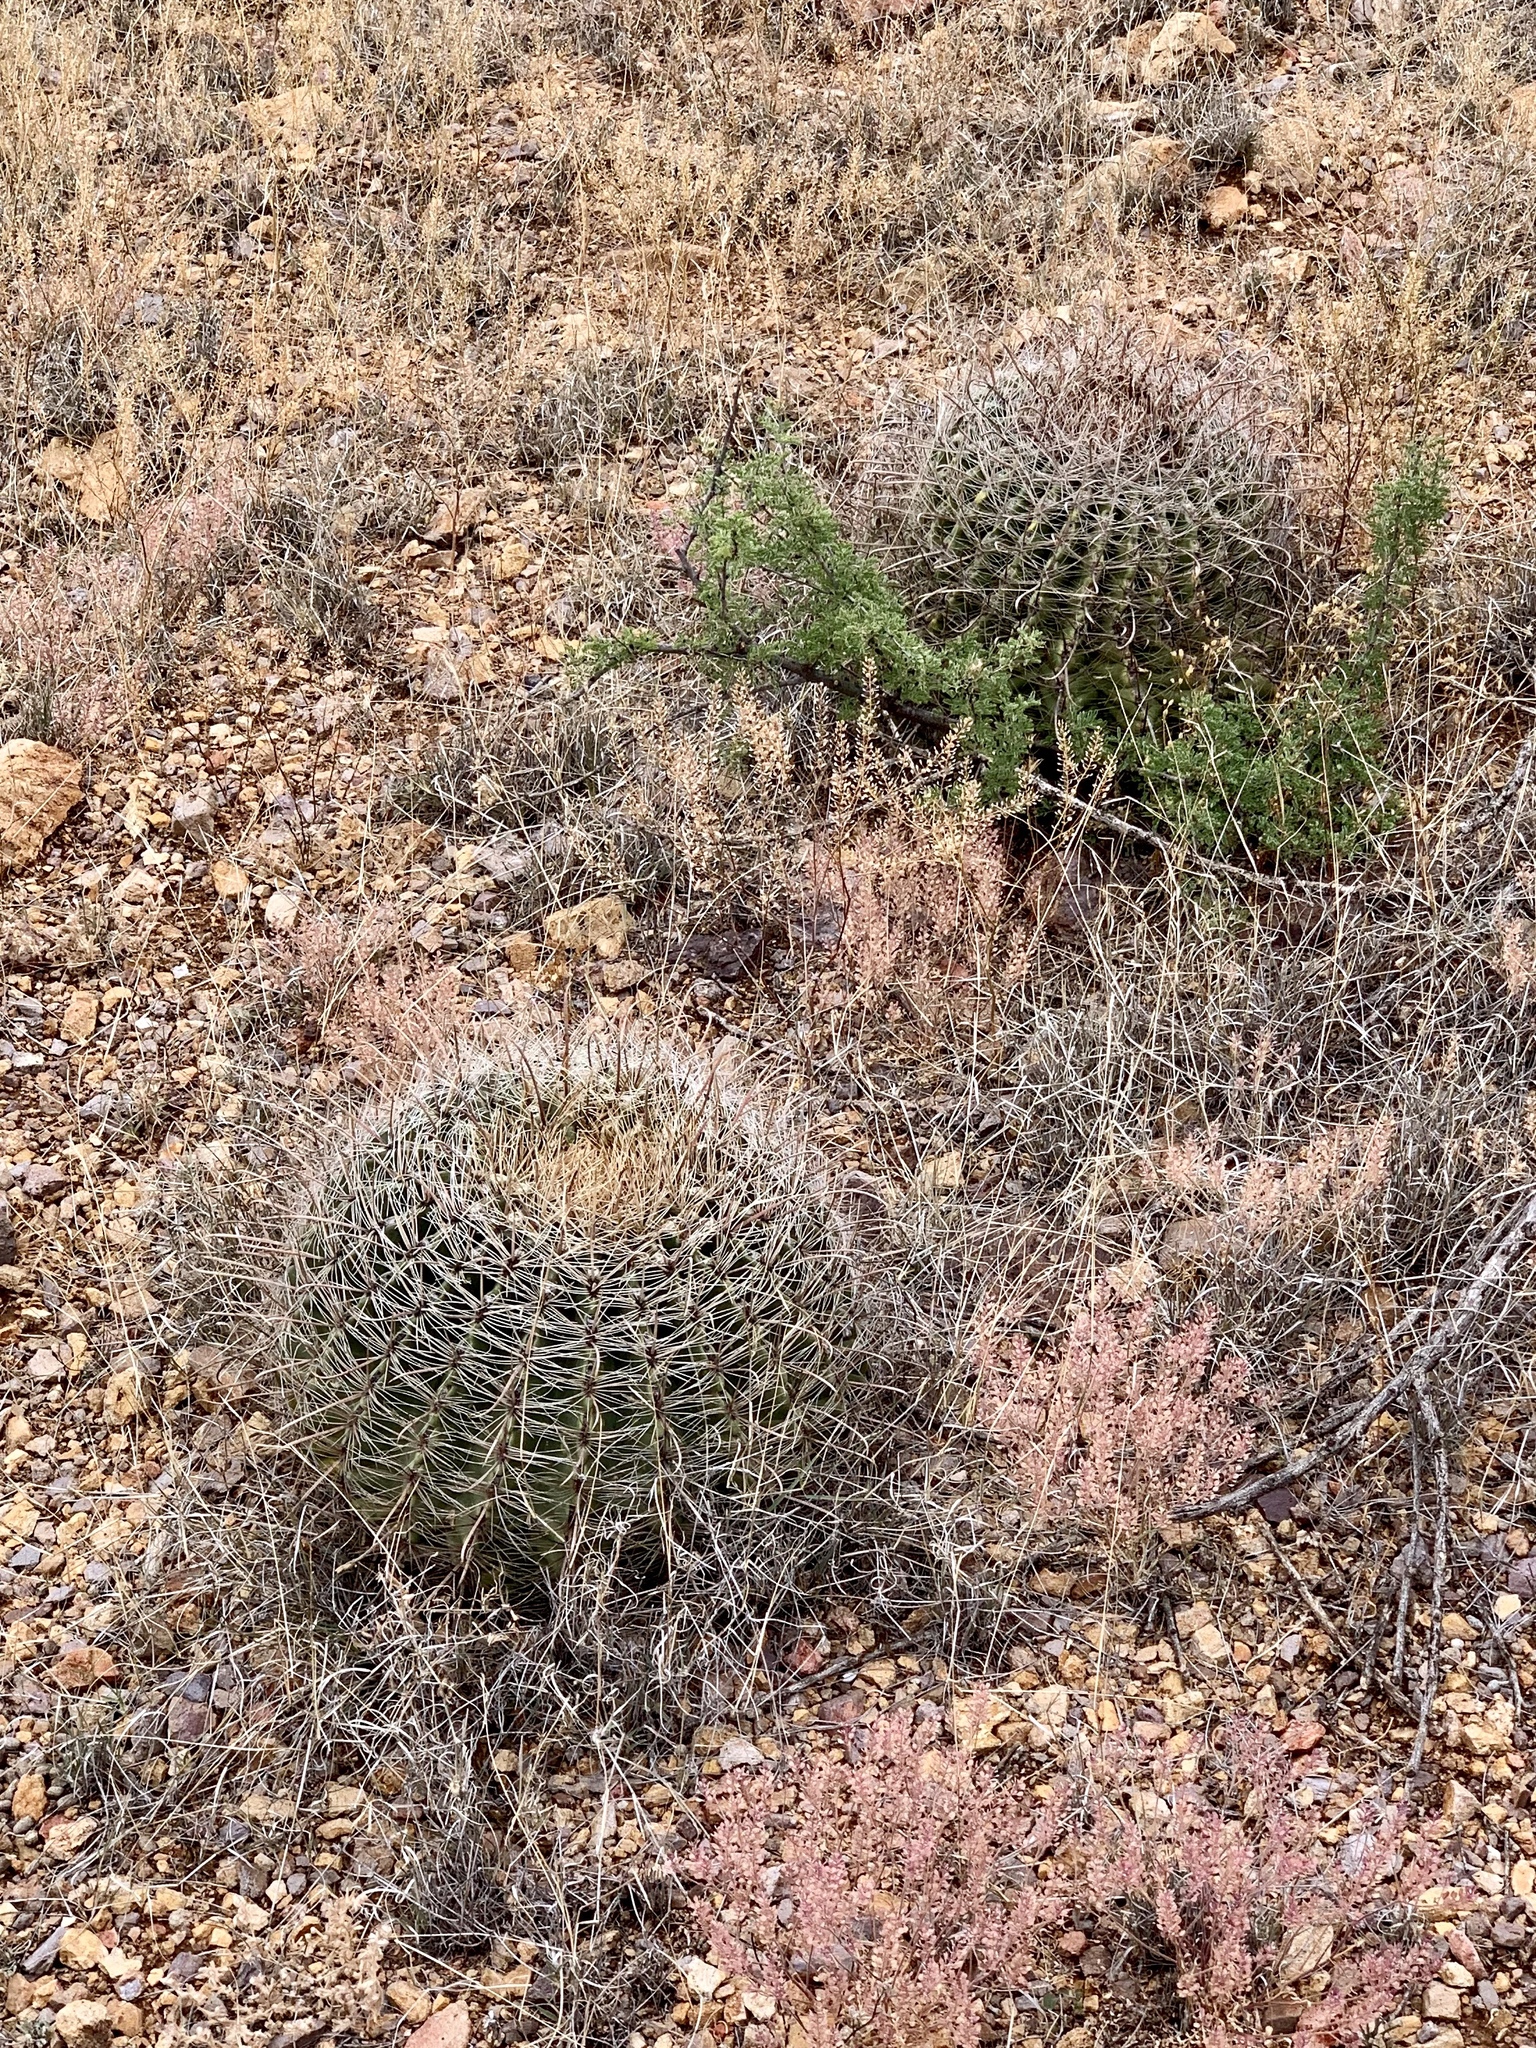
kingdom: Plantae
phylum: Tracheophyta
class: Magnoliopsida
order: Caryophyllales
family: Cactaceae
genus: Ferocactus
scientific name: Ferocactus wislizeni
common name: Candy barrel cactus
